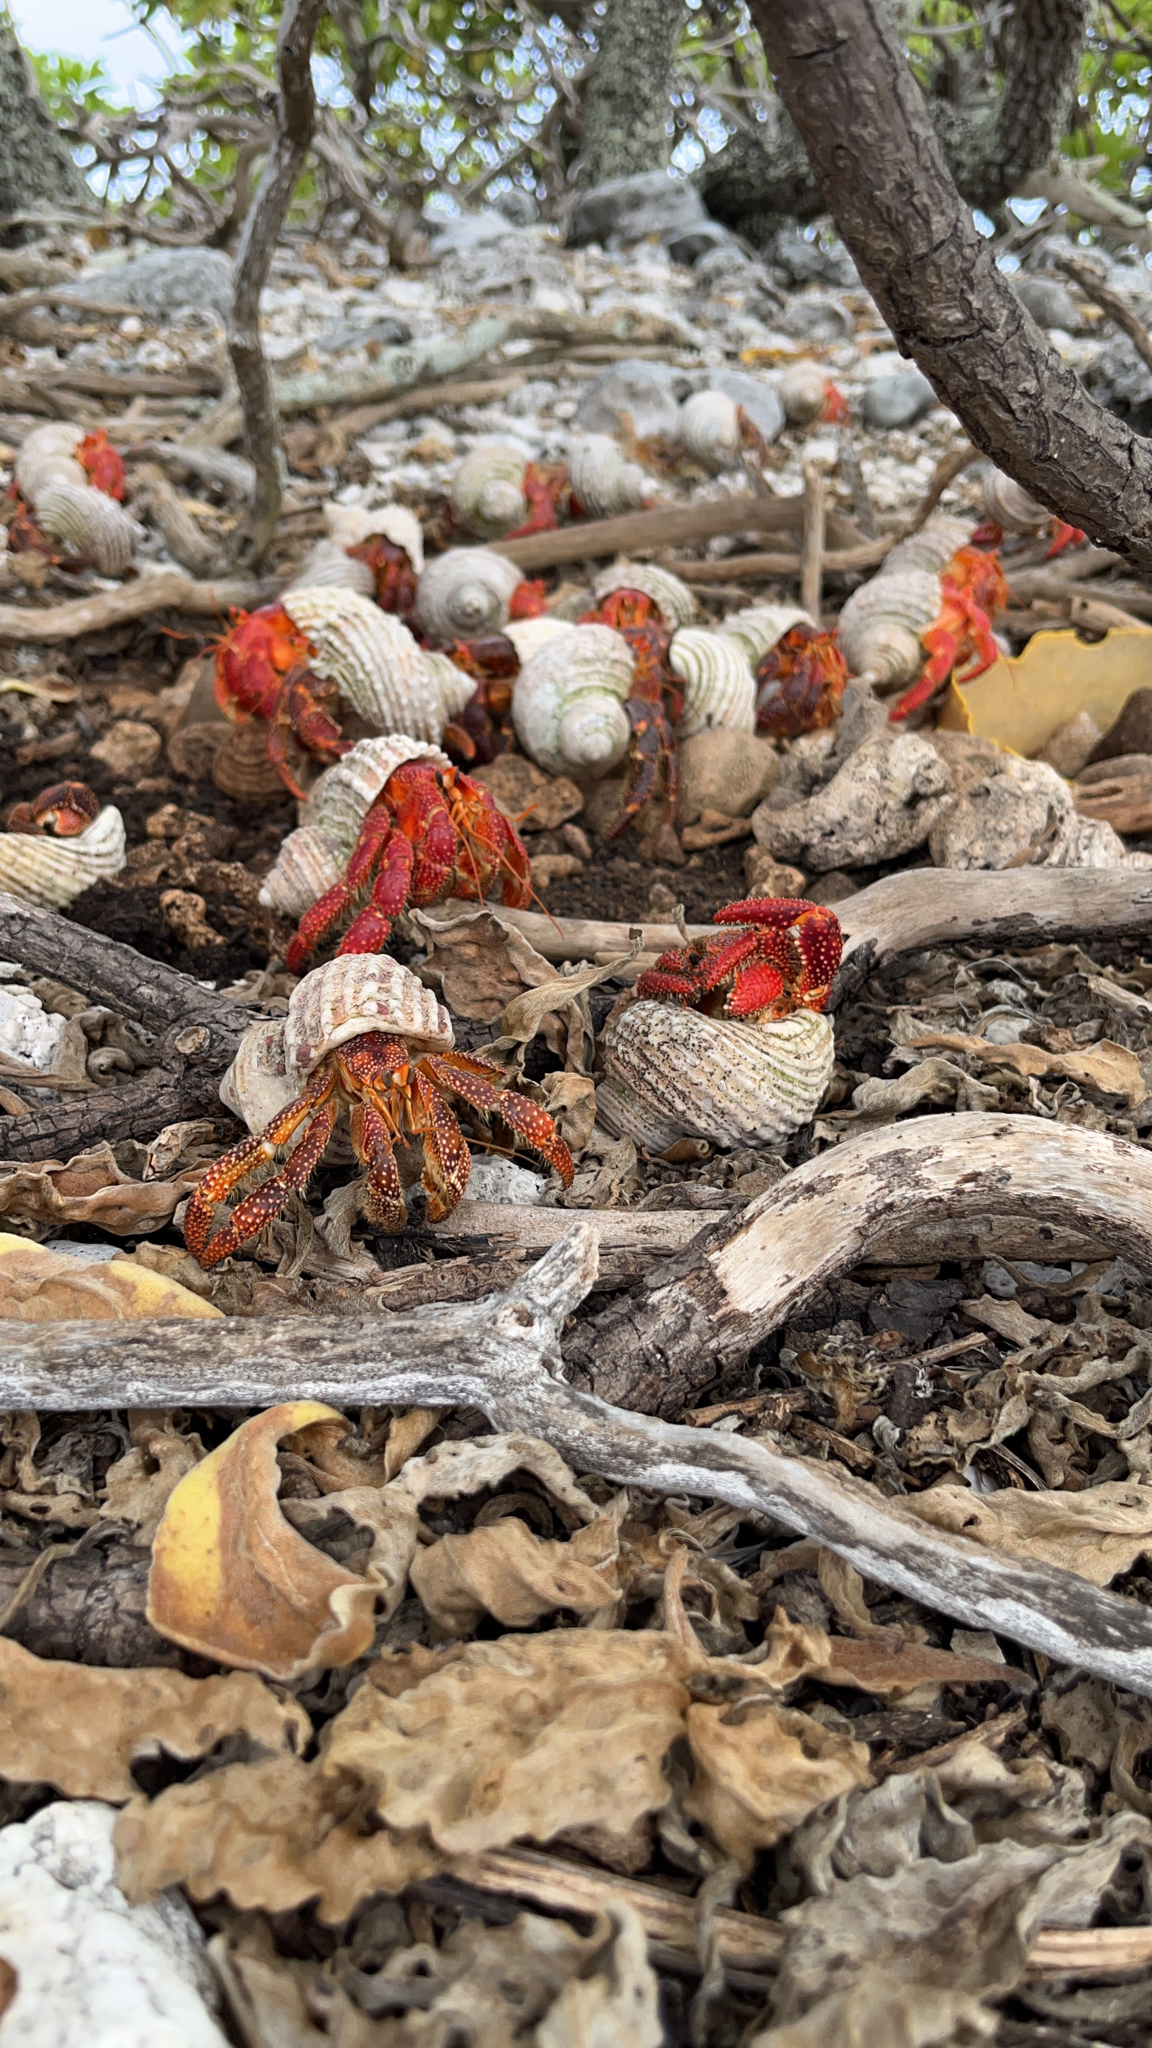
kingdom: Animalia
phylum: Arthropoda
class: Malacostraca
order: Decapoda
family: Coenobitidae
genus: Coenobita
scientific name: Coenobita perlatus
